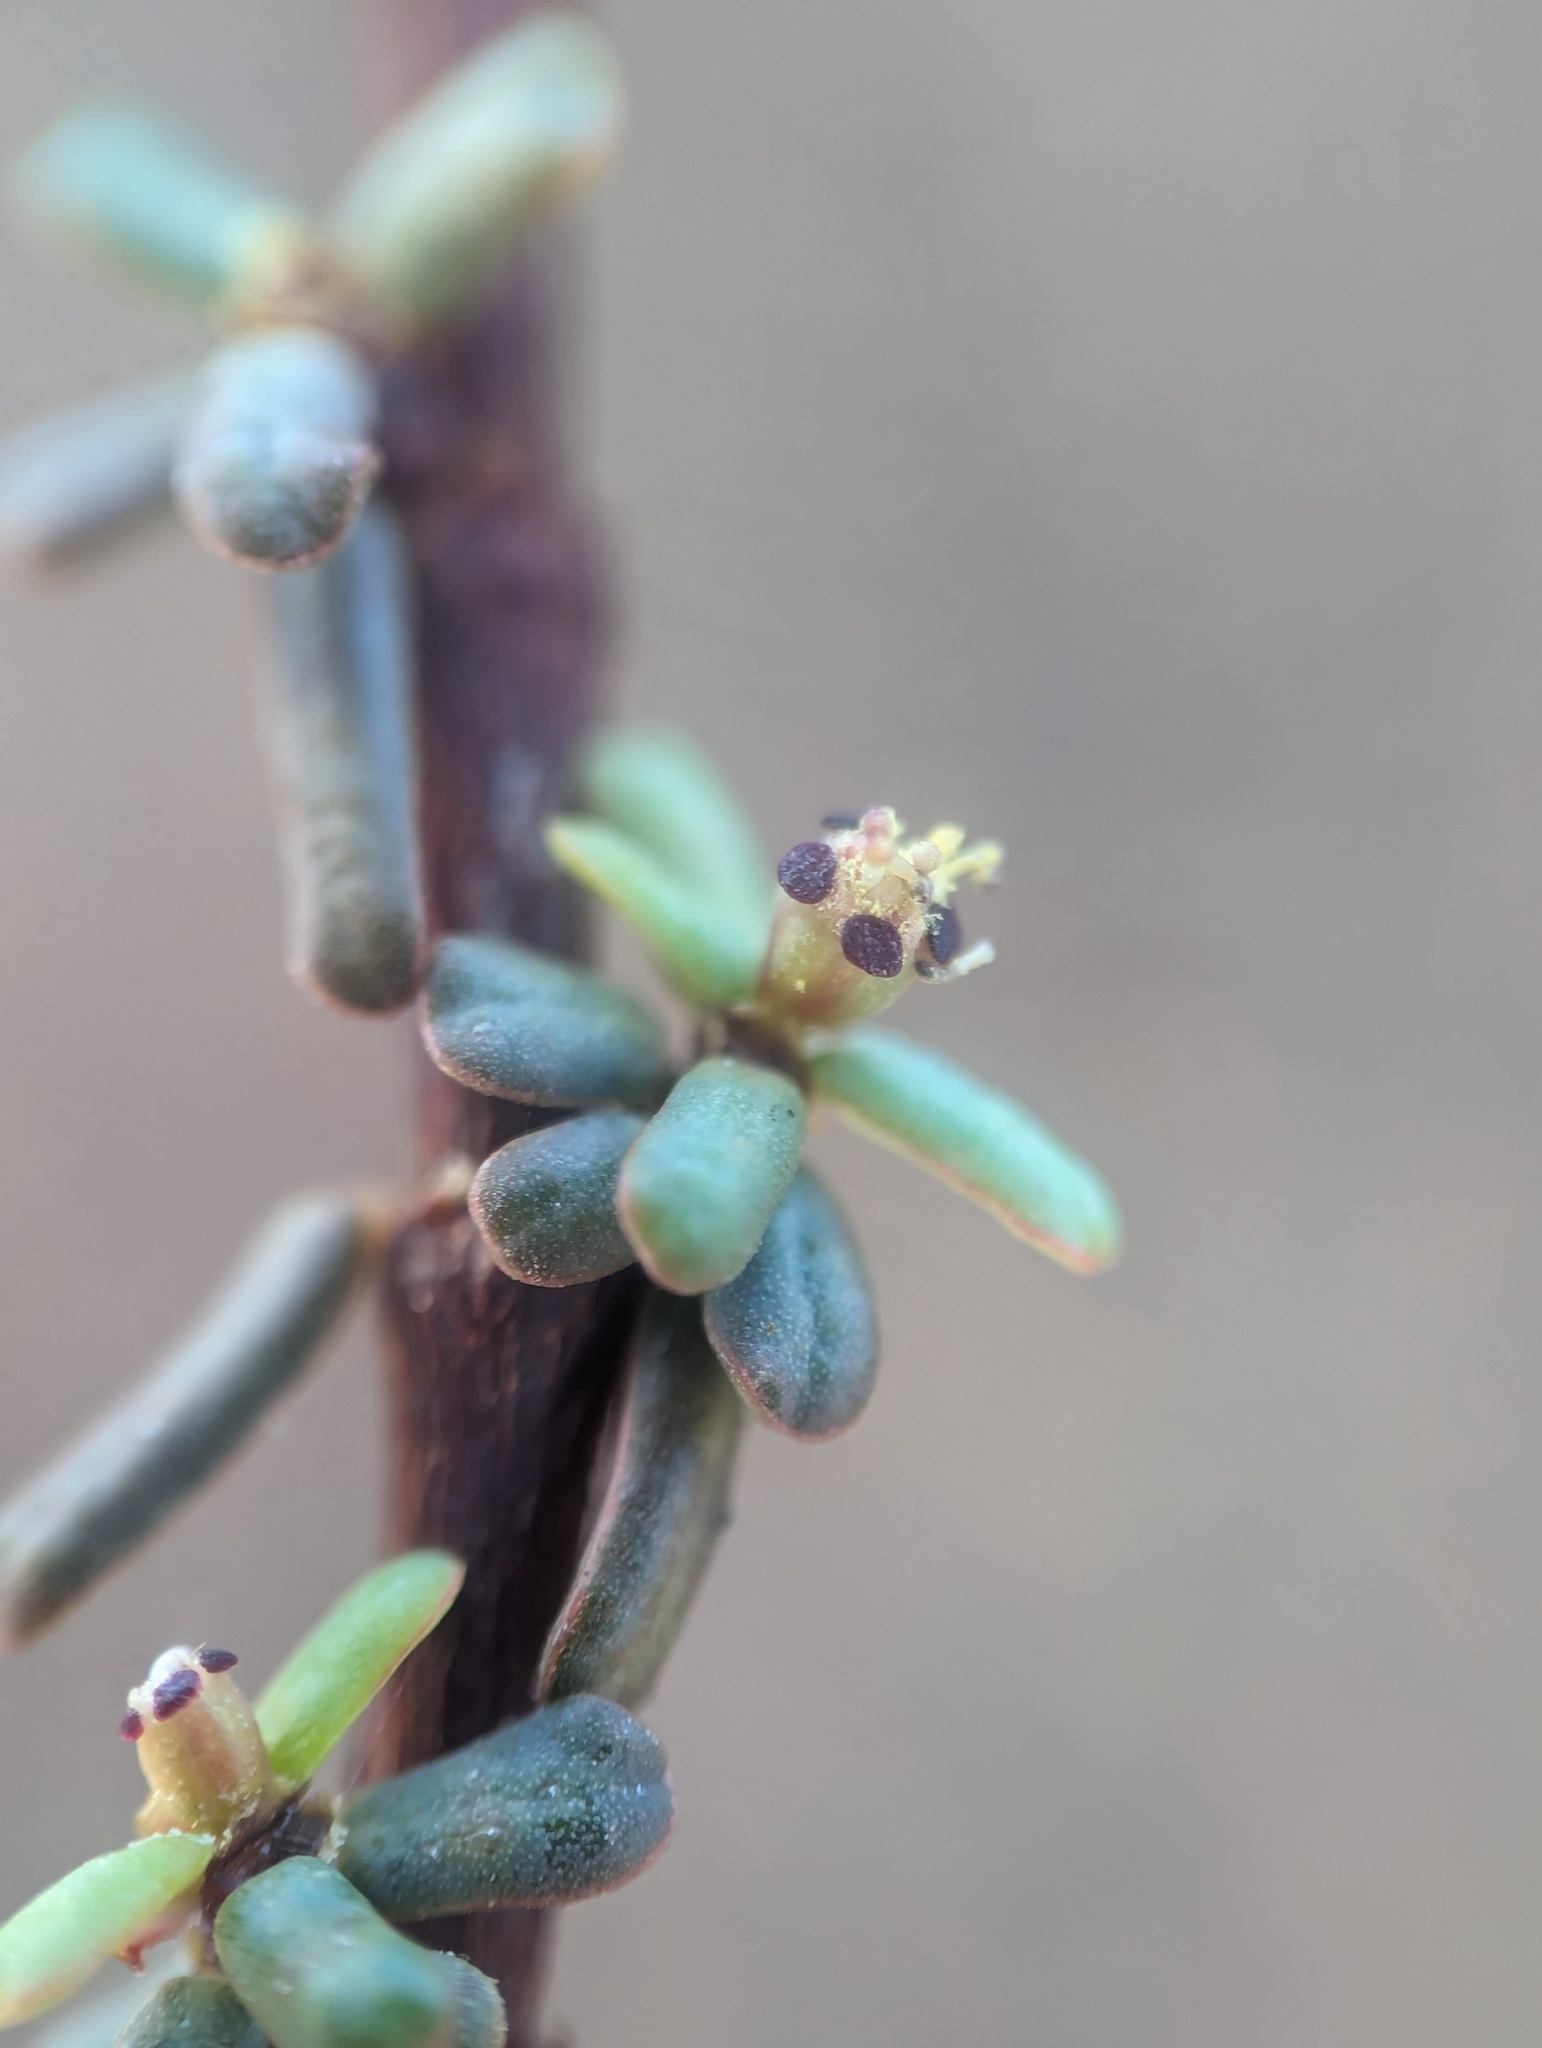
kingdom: Plantae
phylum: Tracheophyta
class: Magnoliopsida
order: Malpighiales
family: Euphorbiaceae
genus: Euphorbia
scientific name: Euphorbia viminea
